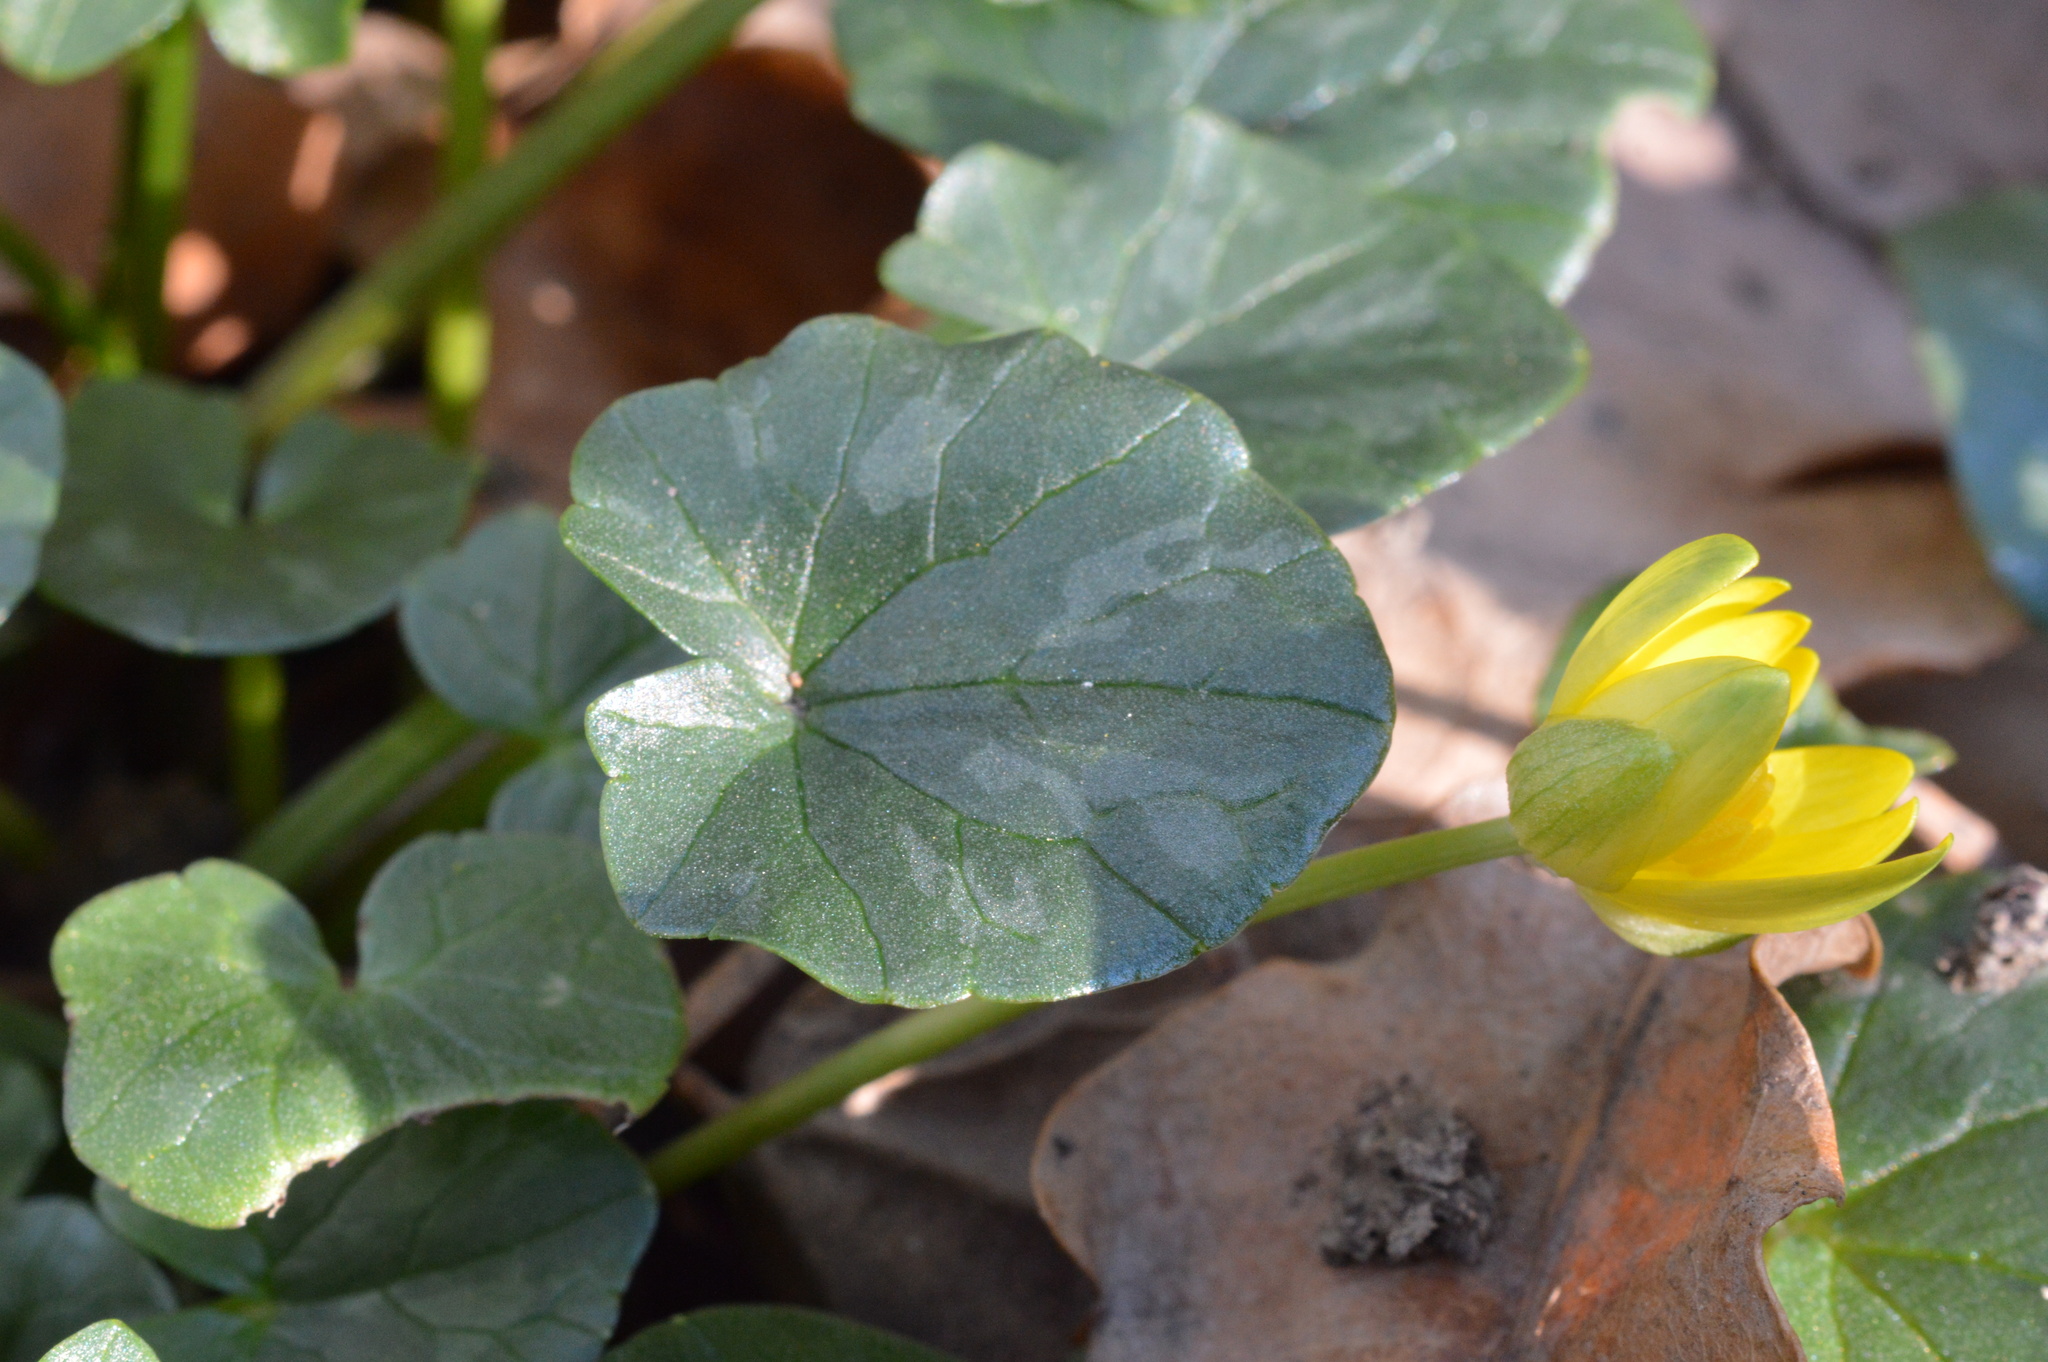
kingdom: Plantae
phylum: Tracheophyta
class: Magnoliopsida
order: Ranunculales
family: Ranunculaceae
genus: Ficaria
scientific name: Ficaria verna
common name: Lesser celandine
